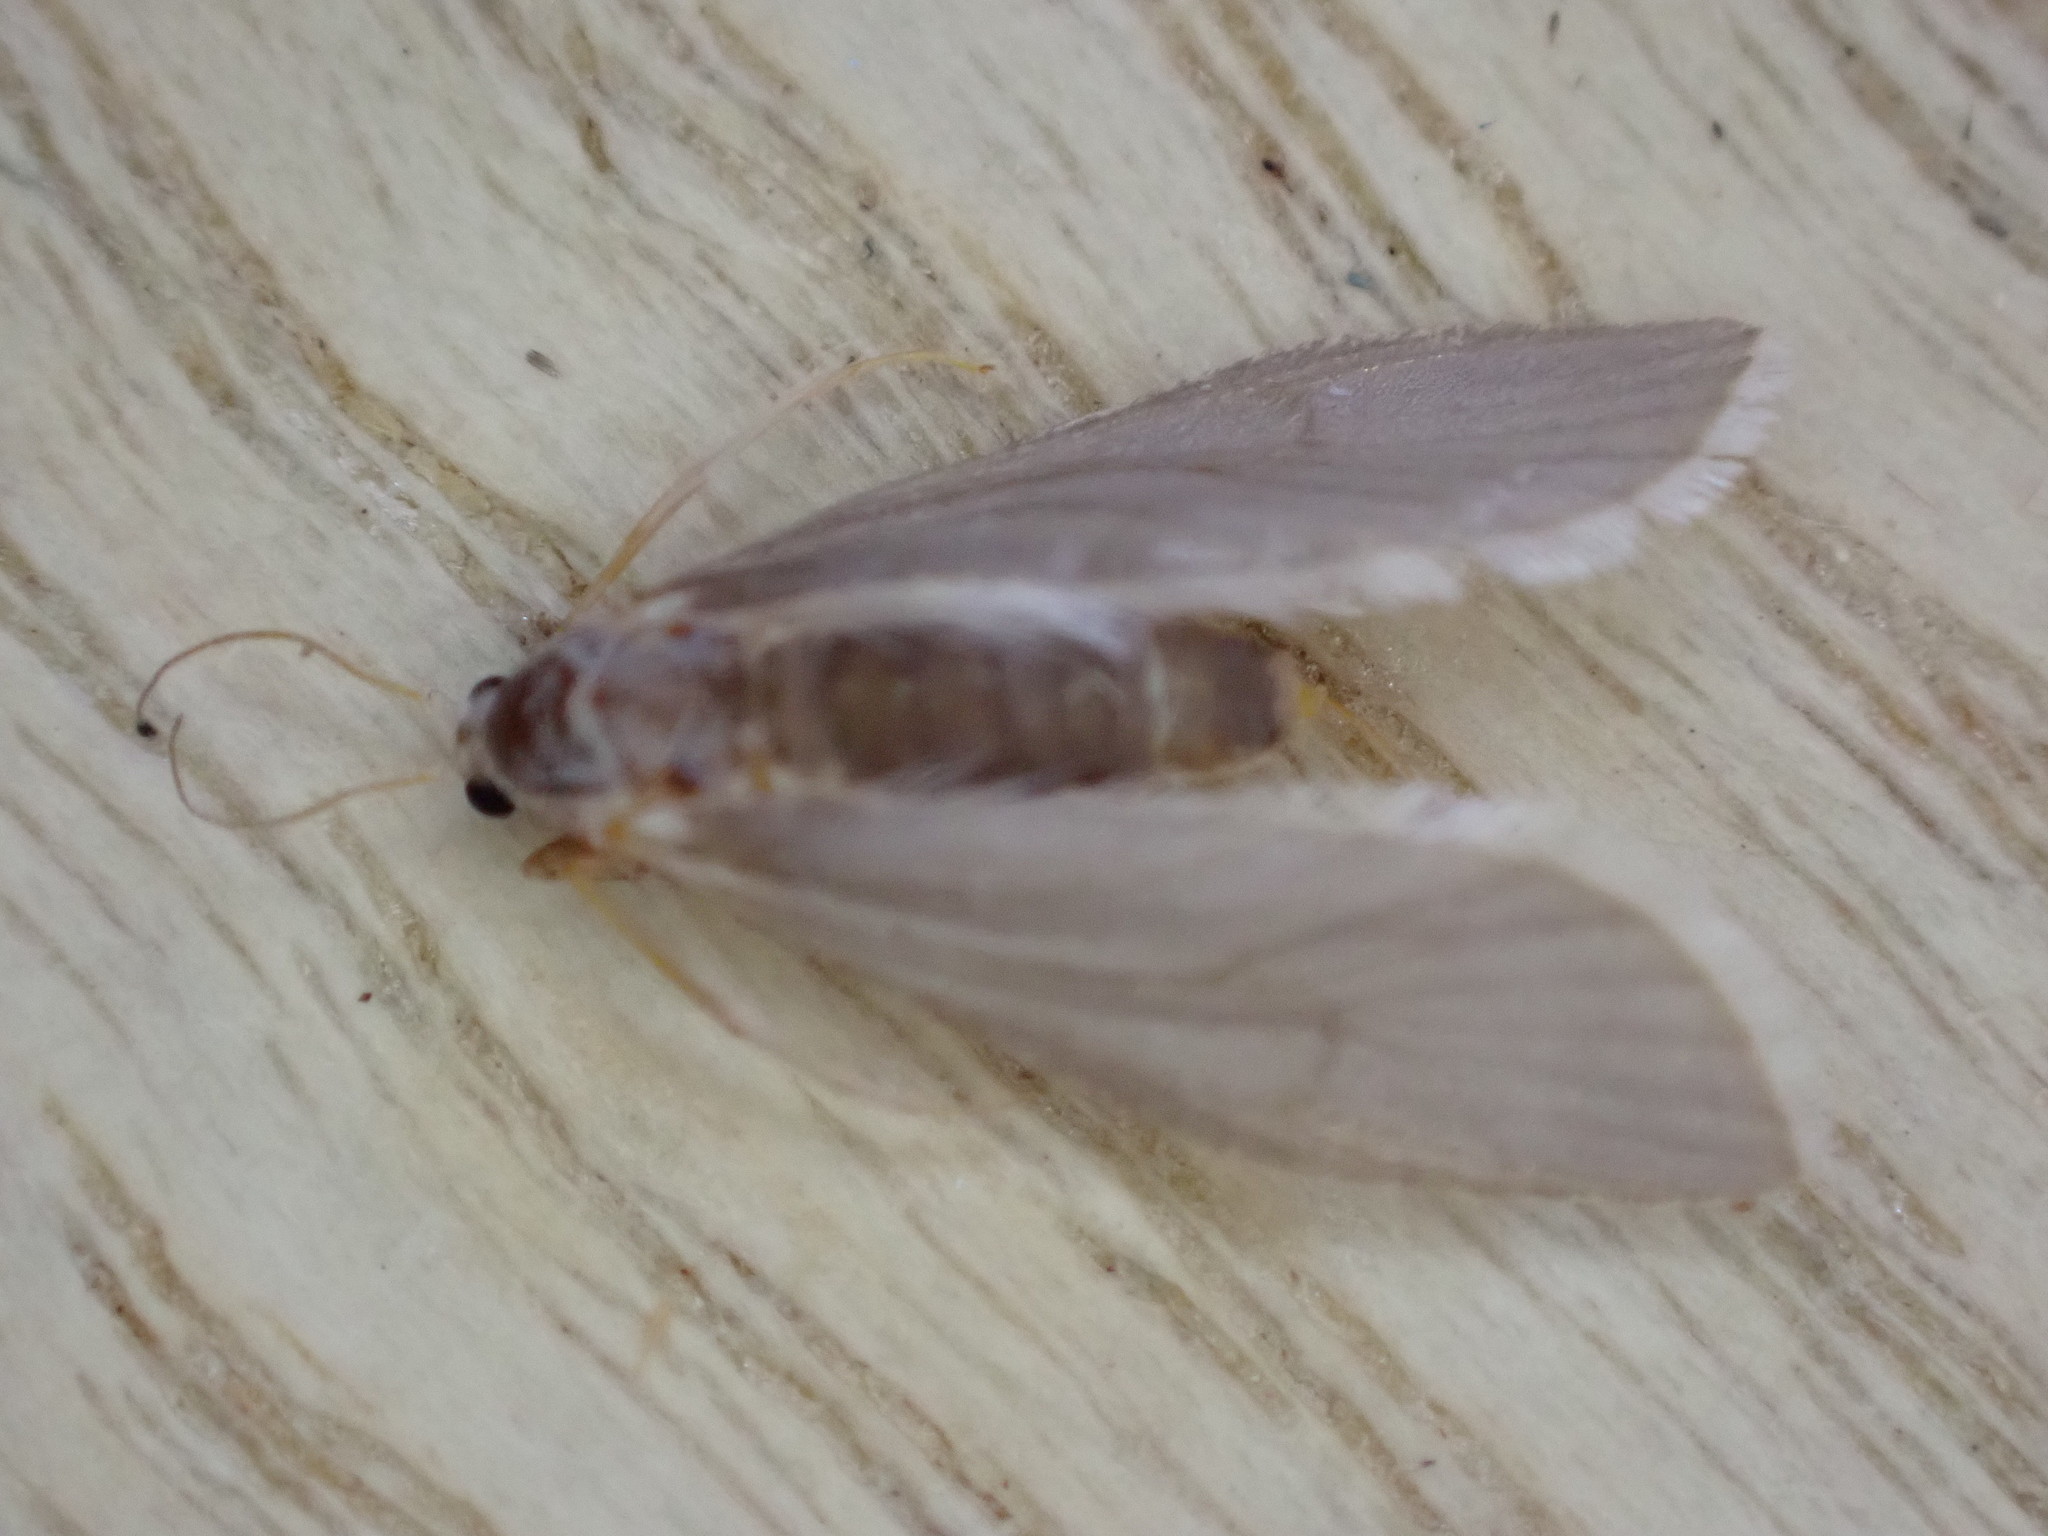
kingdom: Animalia
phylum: Arthropoda
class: Insecta
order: Lepidoptera
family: Crambidae
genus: Acentria
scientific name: Acentria ephemerella
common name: European water moth
